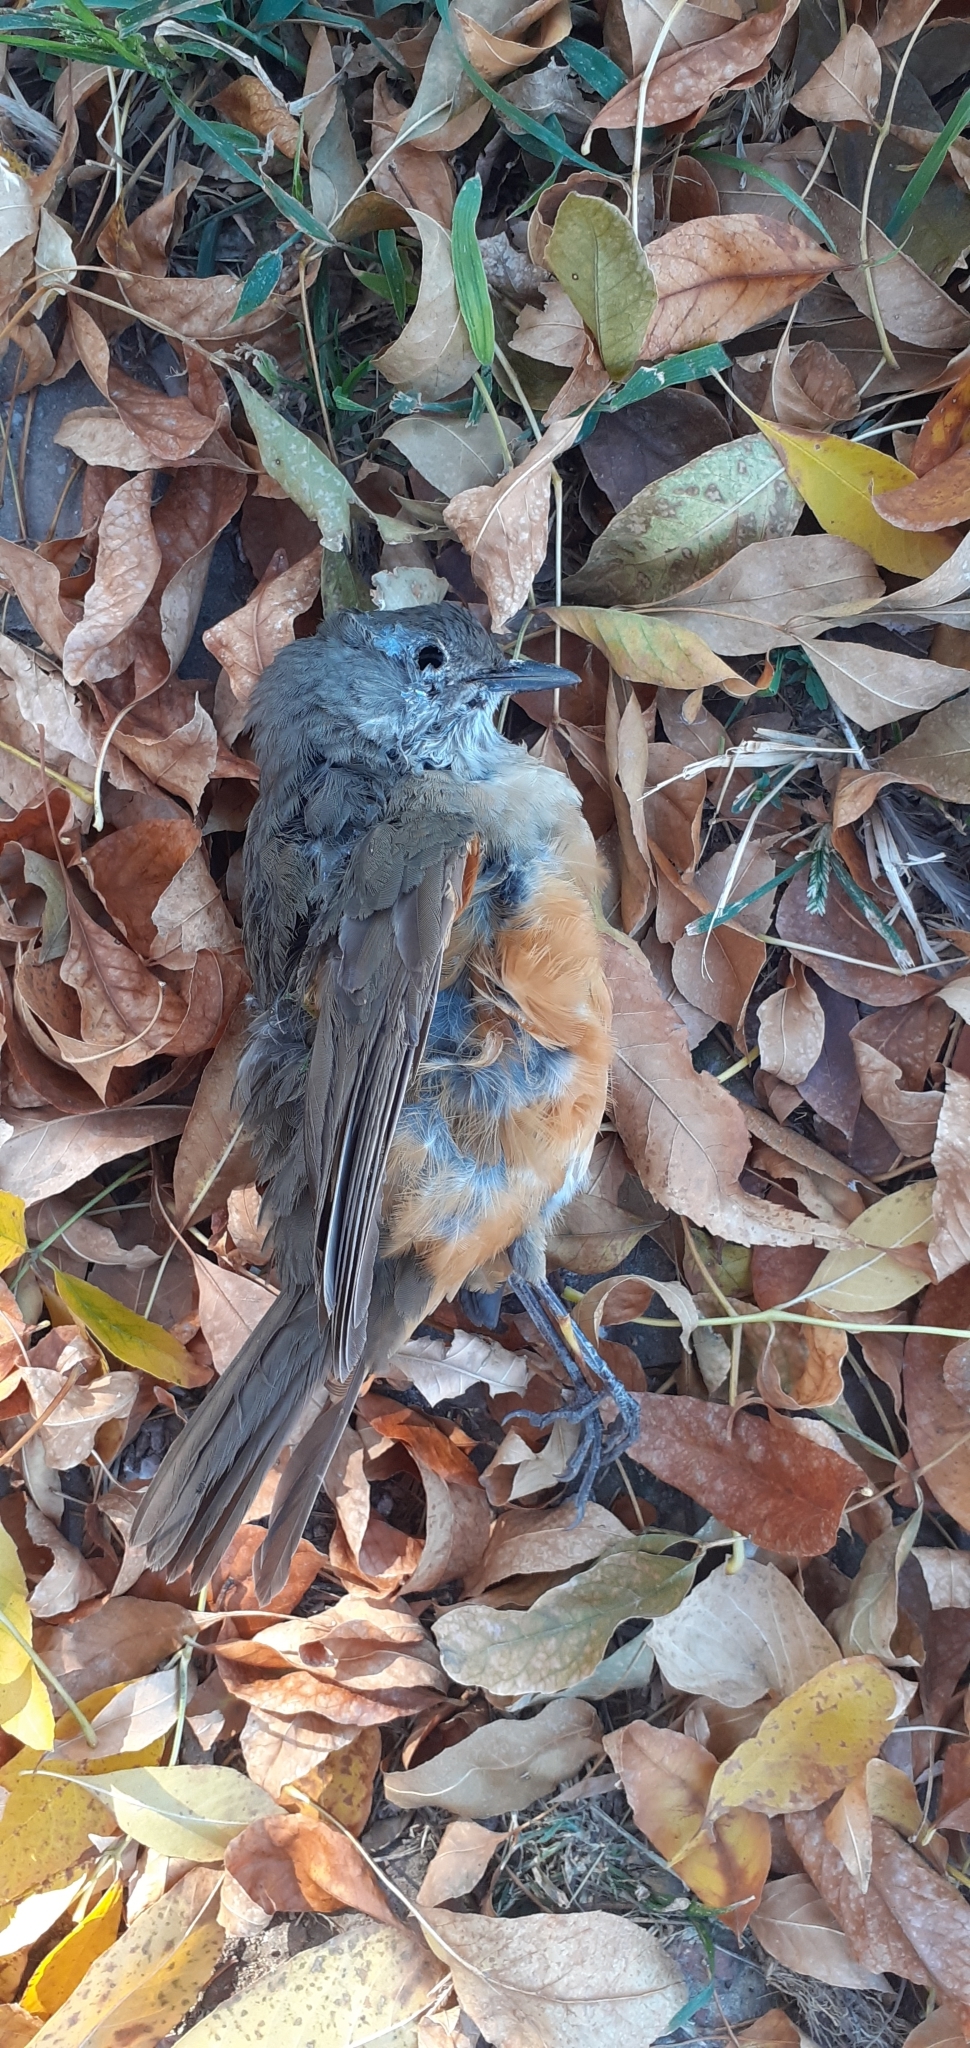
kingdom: Animalia
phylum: Chordata
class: Aves
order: Passeriformes
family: Turdidae
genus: Turdus
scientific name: Turdus rufiventris
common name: Rufous-bellied thrush
